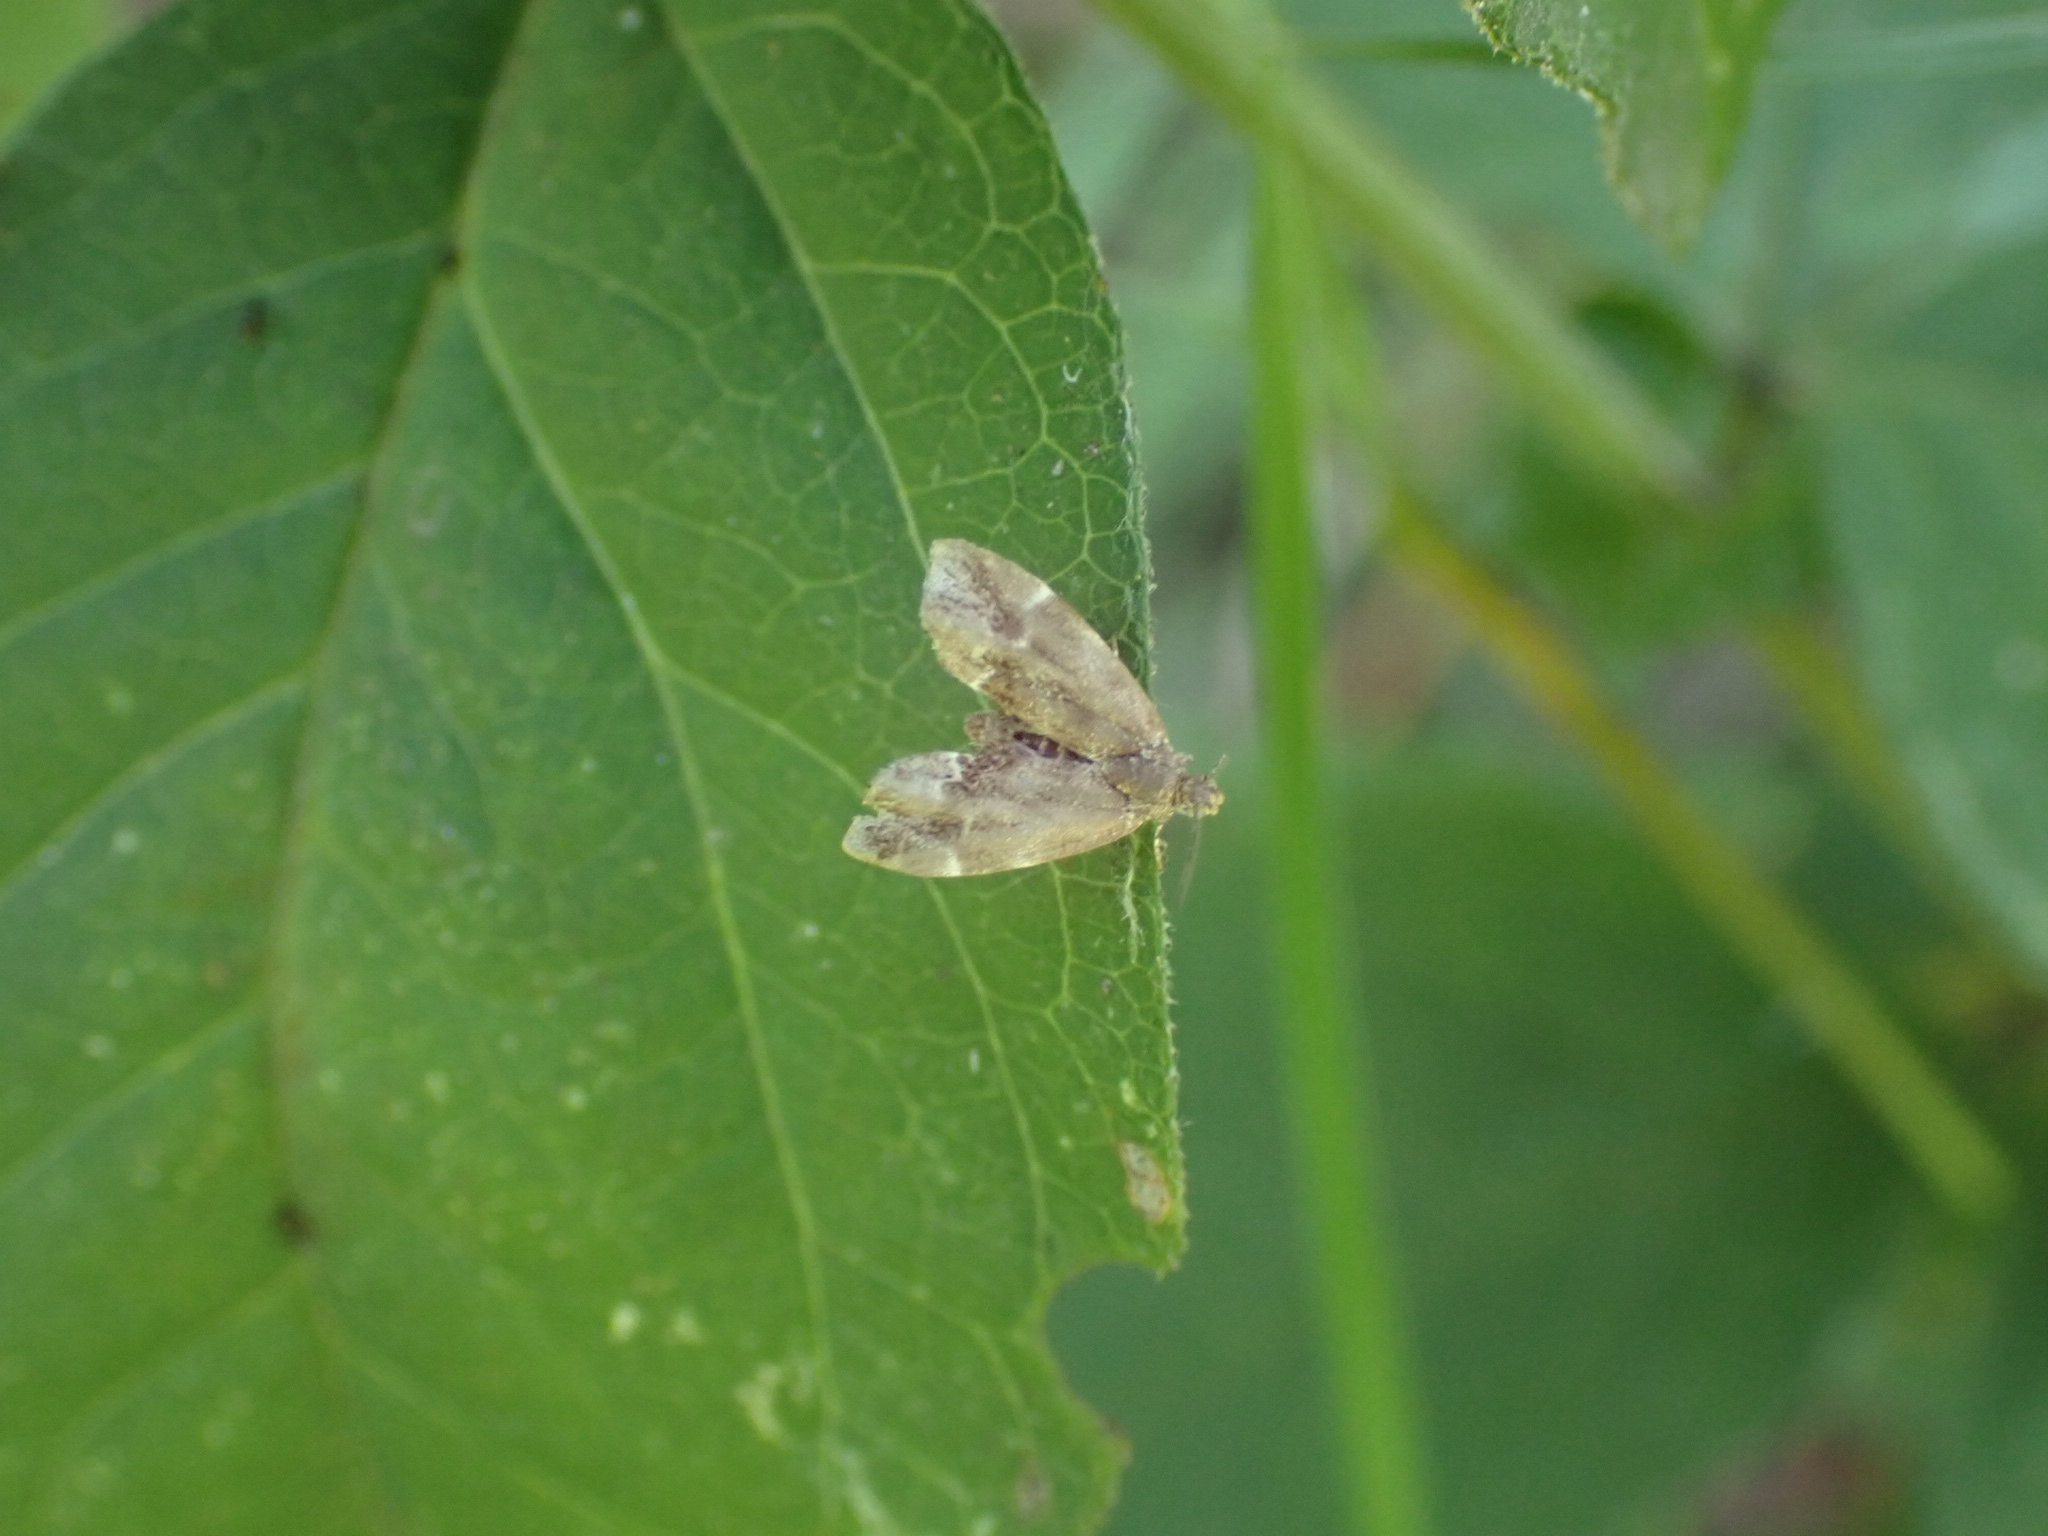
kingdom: Animalia
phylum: Arthropoda
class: Insecta
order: Lepidoptera
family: Choreutidae
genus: Anthophila
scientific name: Anthophila fabriciana
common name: Nettle-tap
